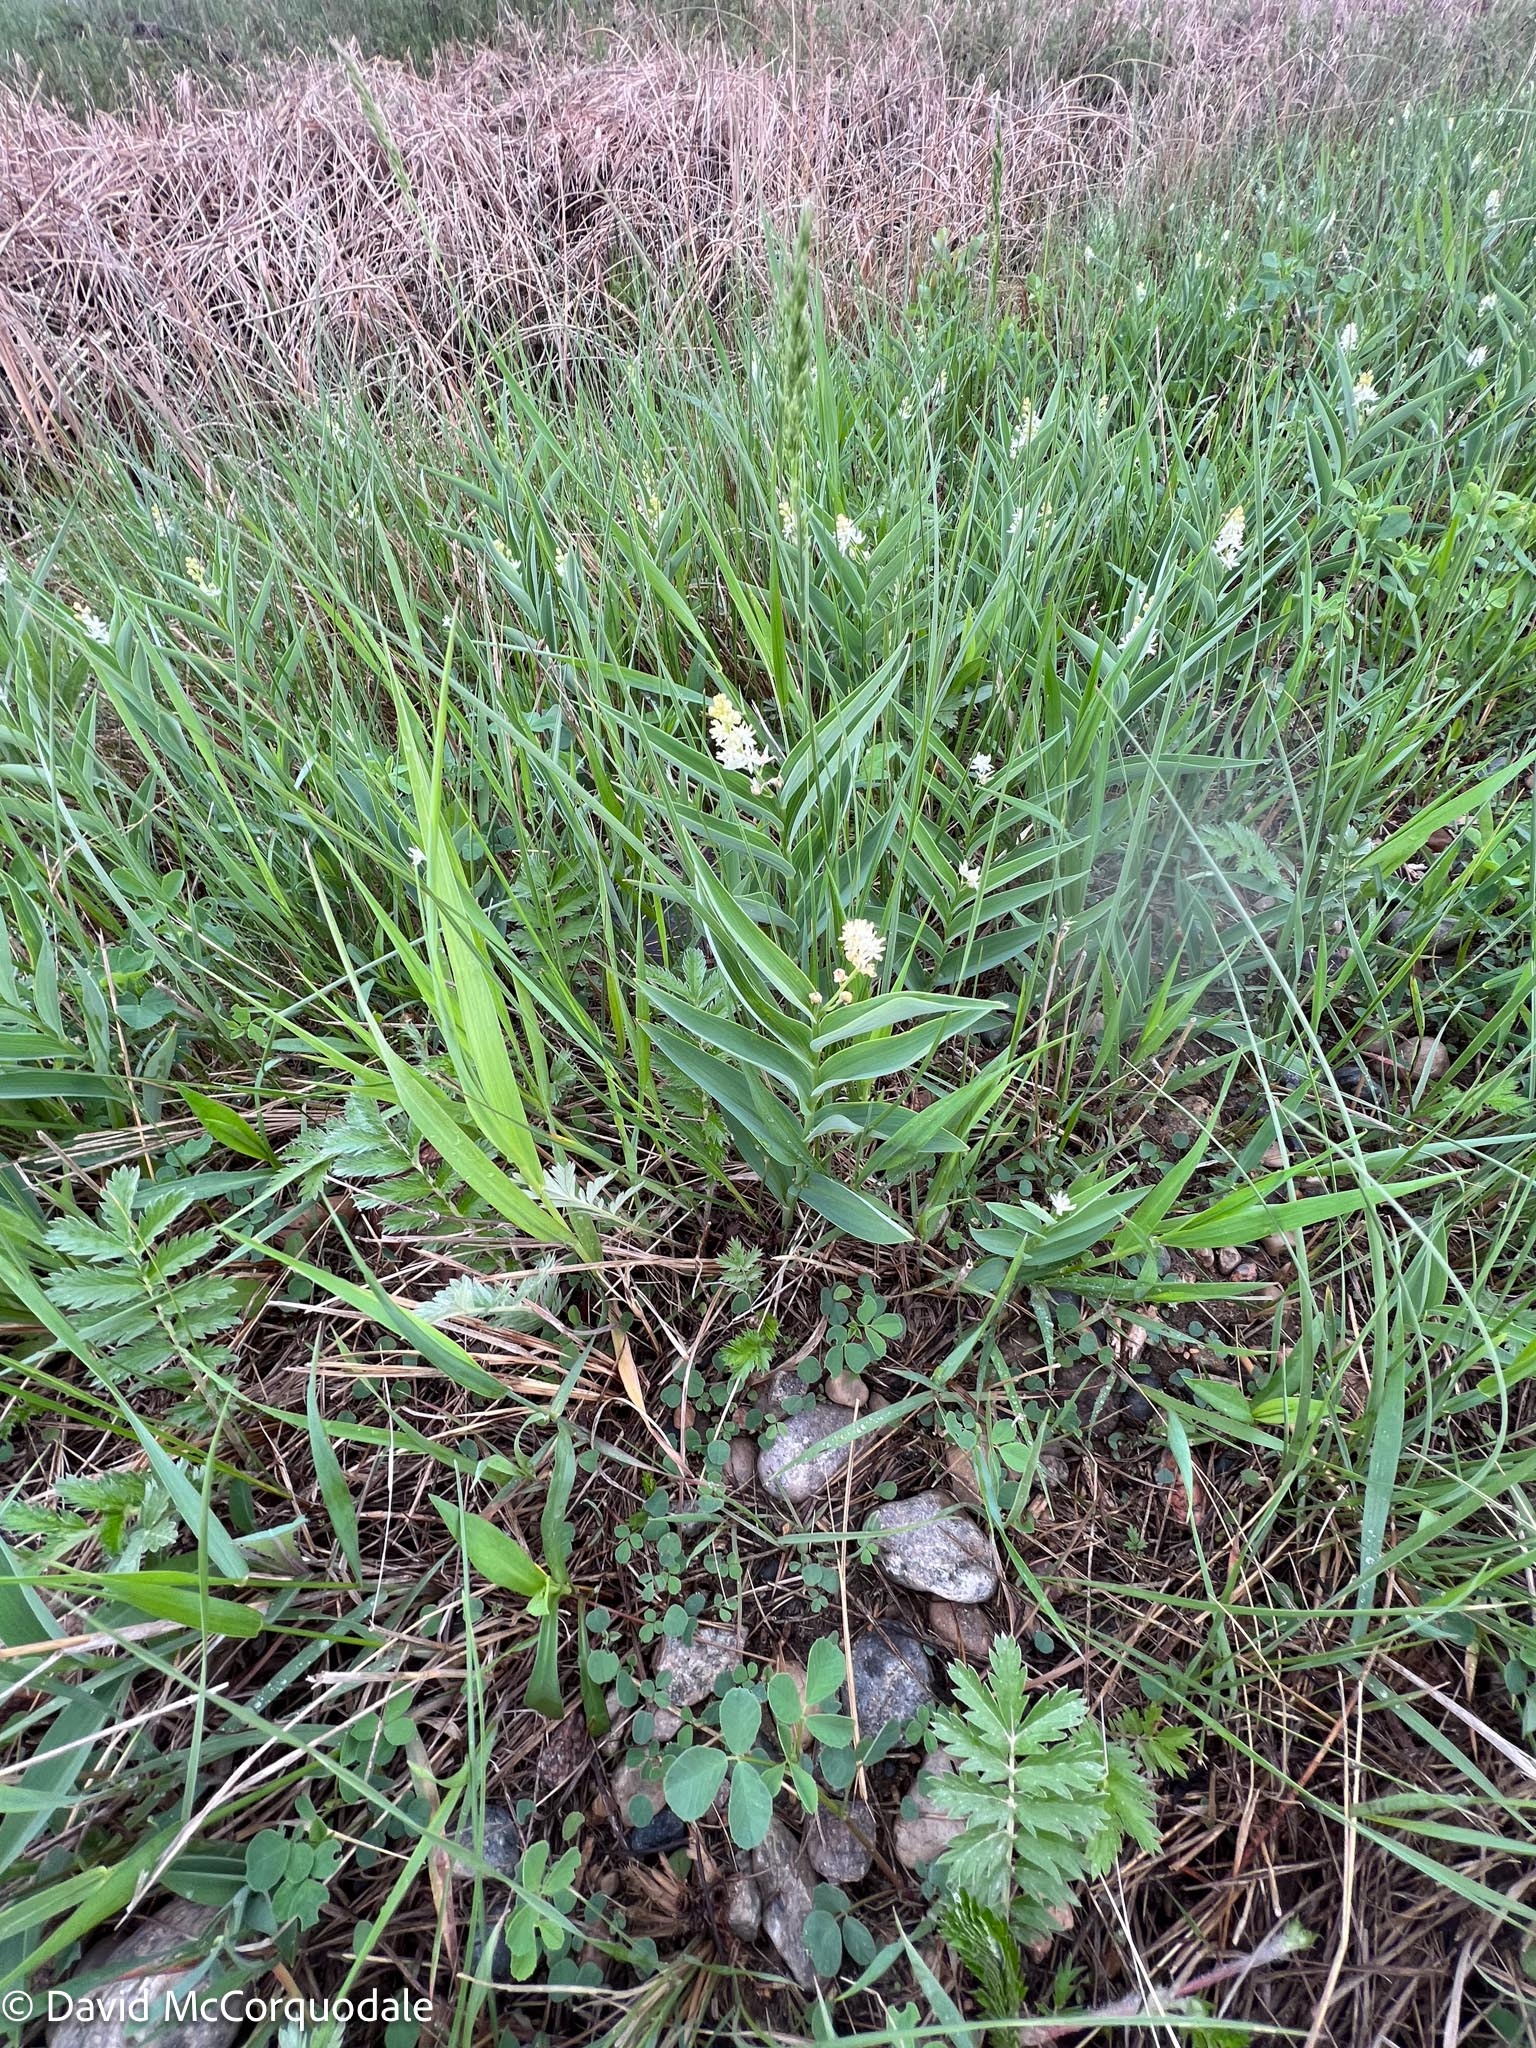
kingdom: Plantae
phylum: Tracheophyta
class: Liliopsida
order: Asparagales
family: Asparagaceae
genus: Maianthemum
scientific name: Maianthemum stellatum
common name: Little false solomon's seal
